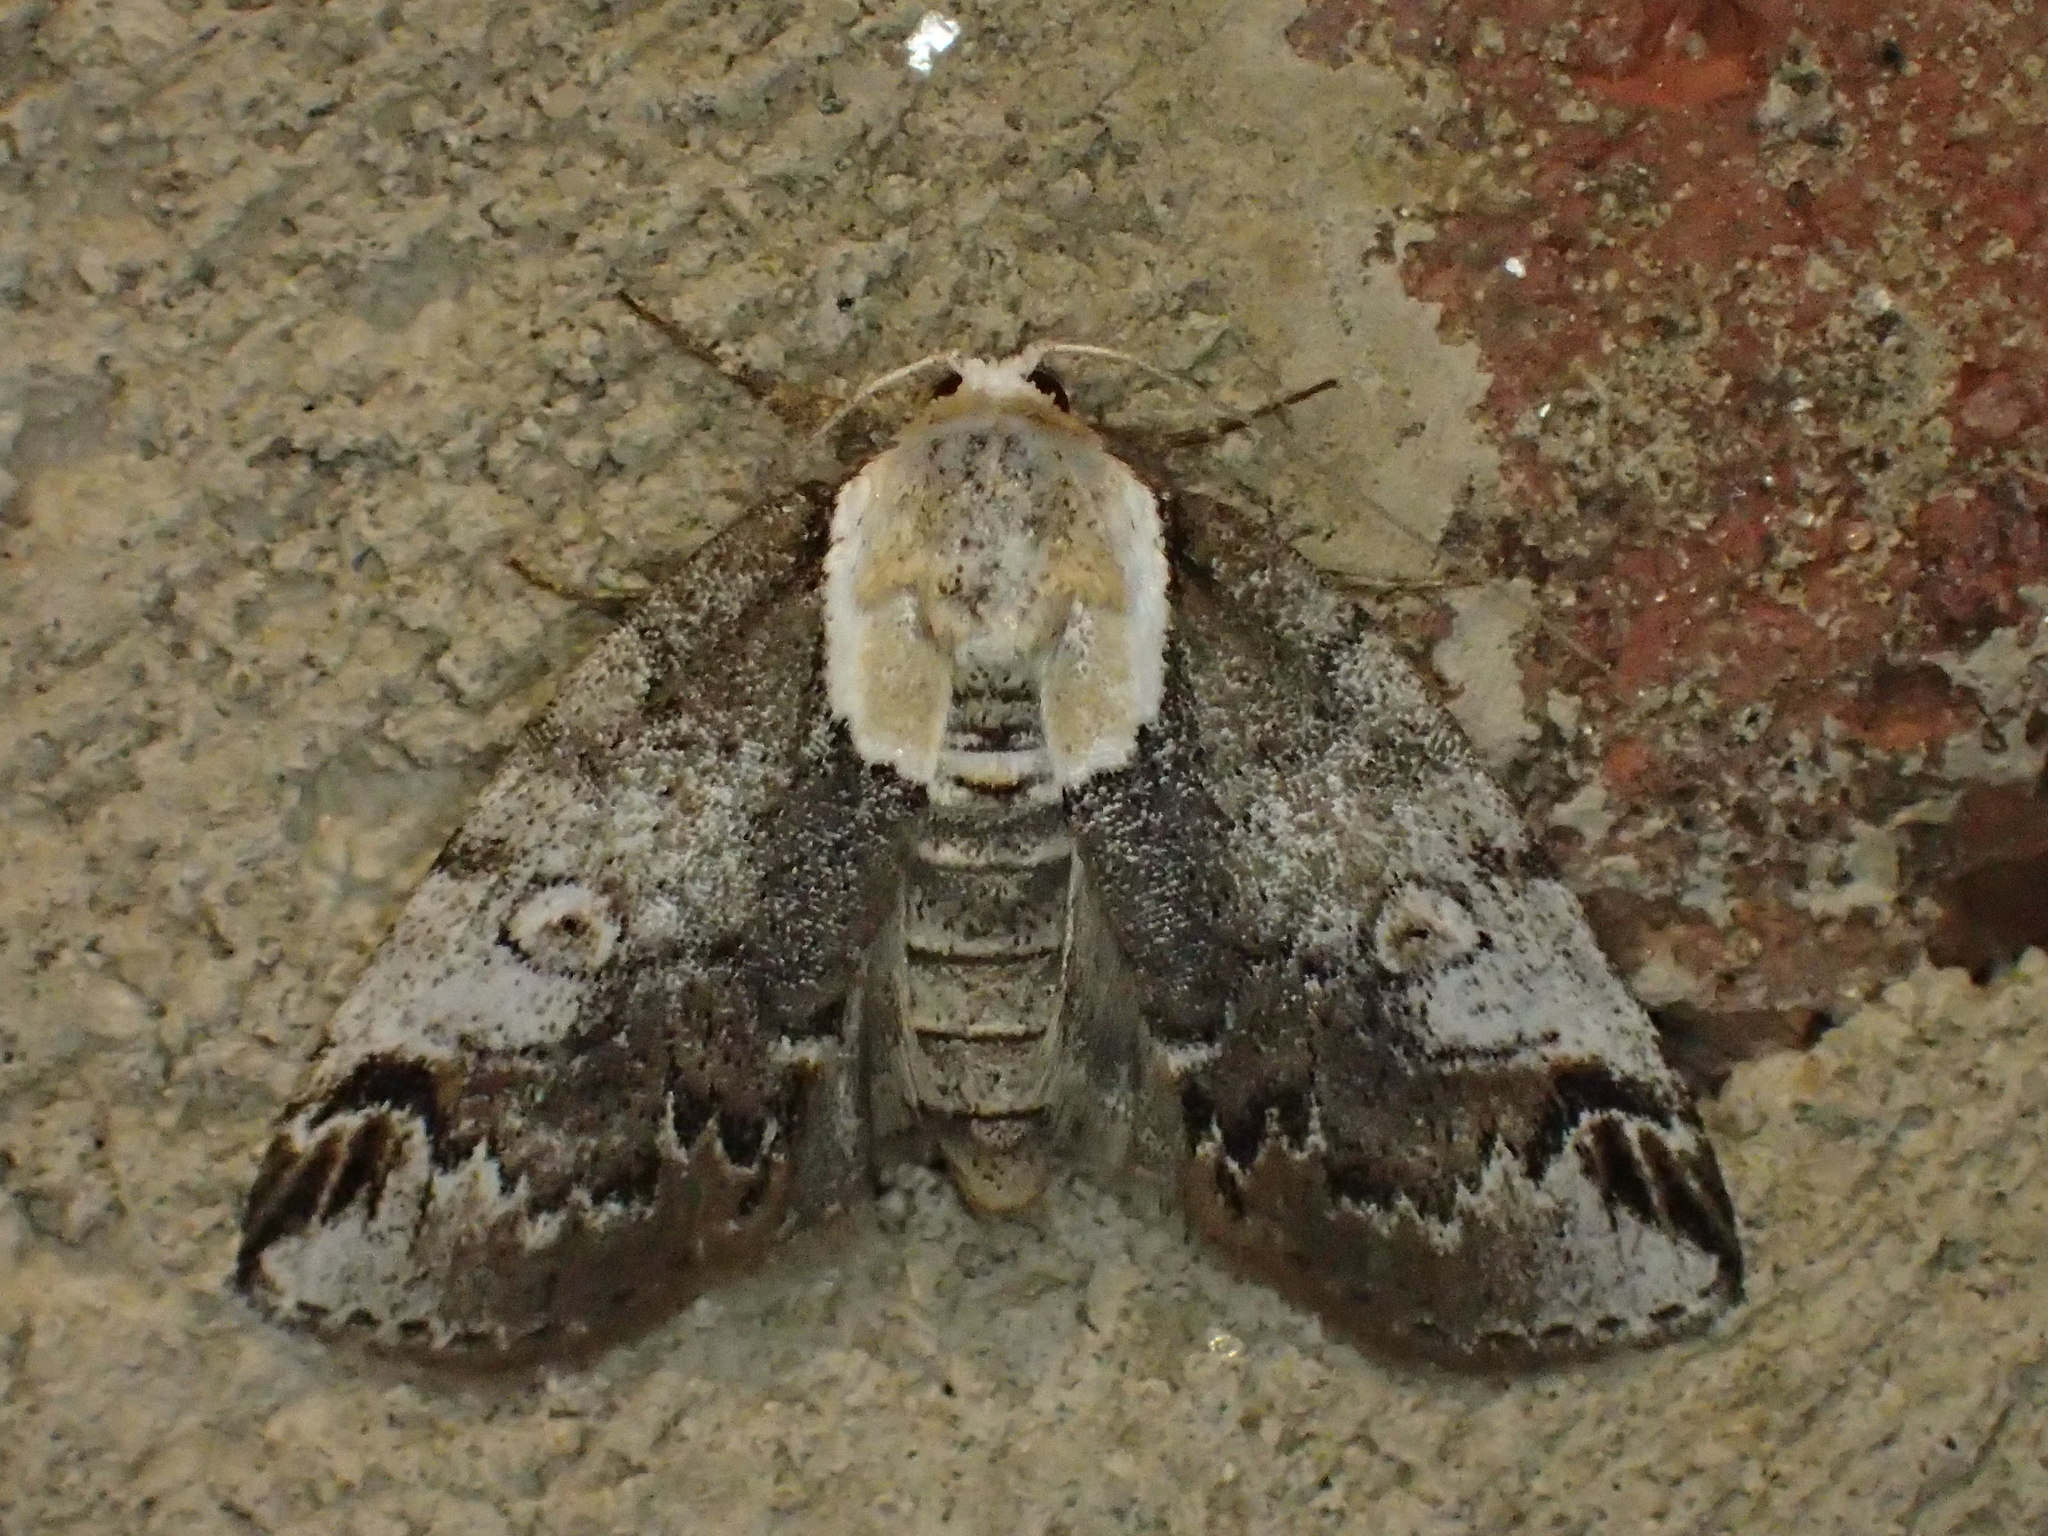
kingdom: Animalia
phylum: Arthropoda
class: Insecta
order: Lepidoptera
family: Nolidae
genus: Baileya
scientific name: Baileya ophthalmica
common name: Eyed baileya moth
